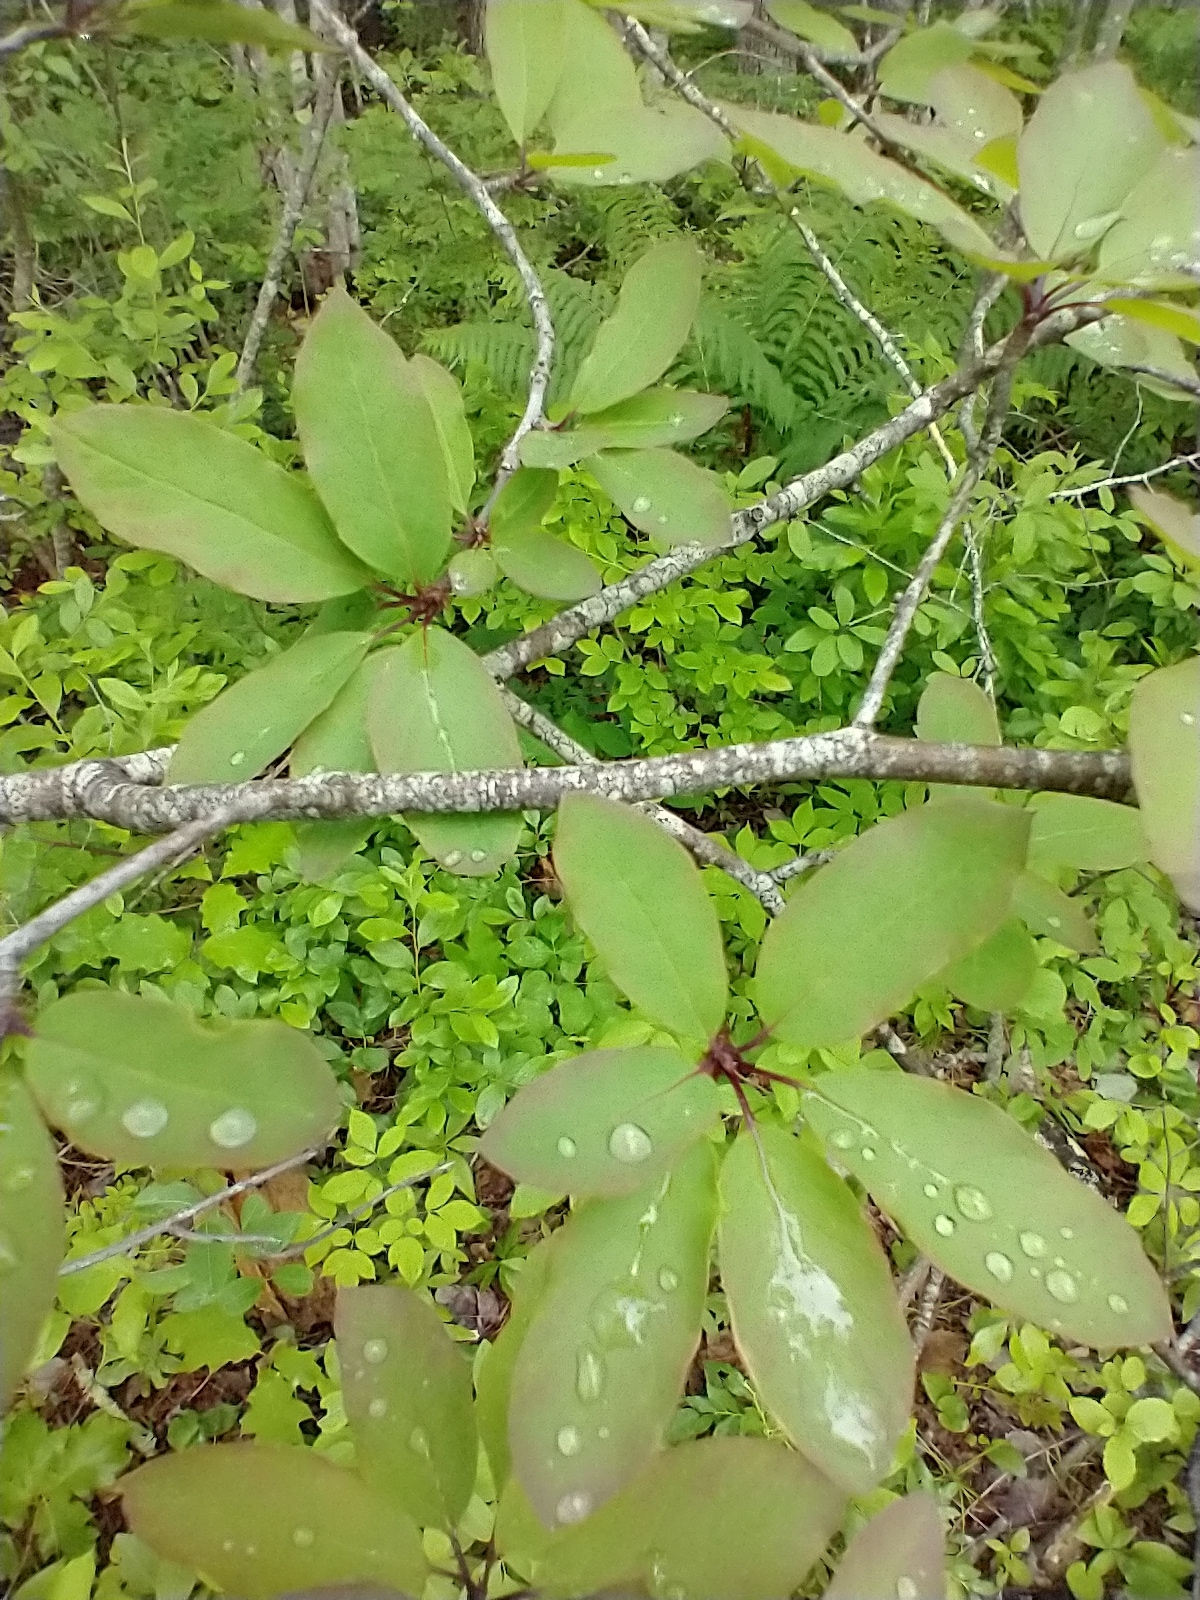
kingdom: Plantae
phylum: Tracheophyta
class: Magnoliopsida
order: Aquifoliales
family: Aquifoliaceae
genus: Ilex
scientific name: Ilex mucronata
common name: Catberry
